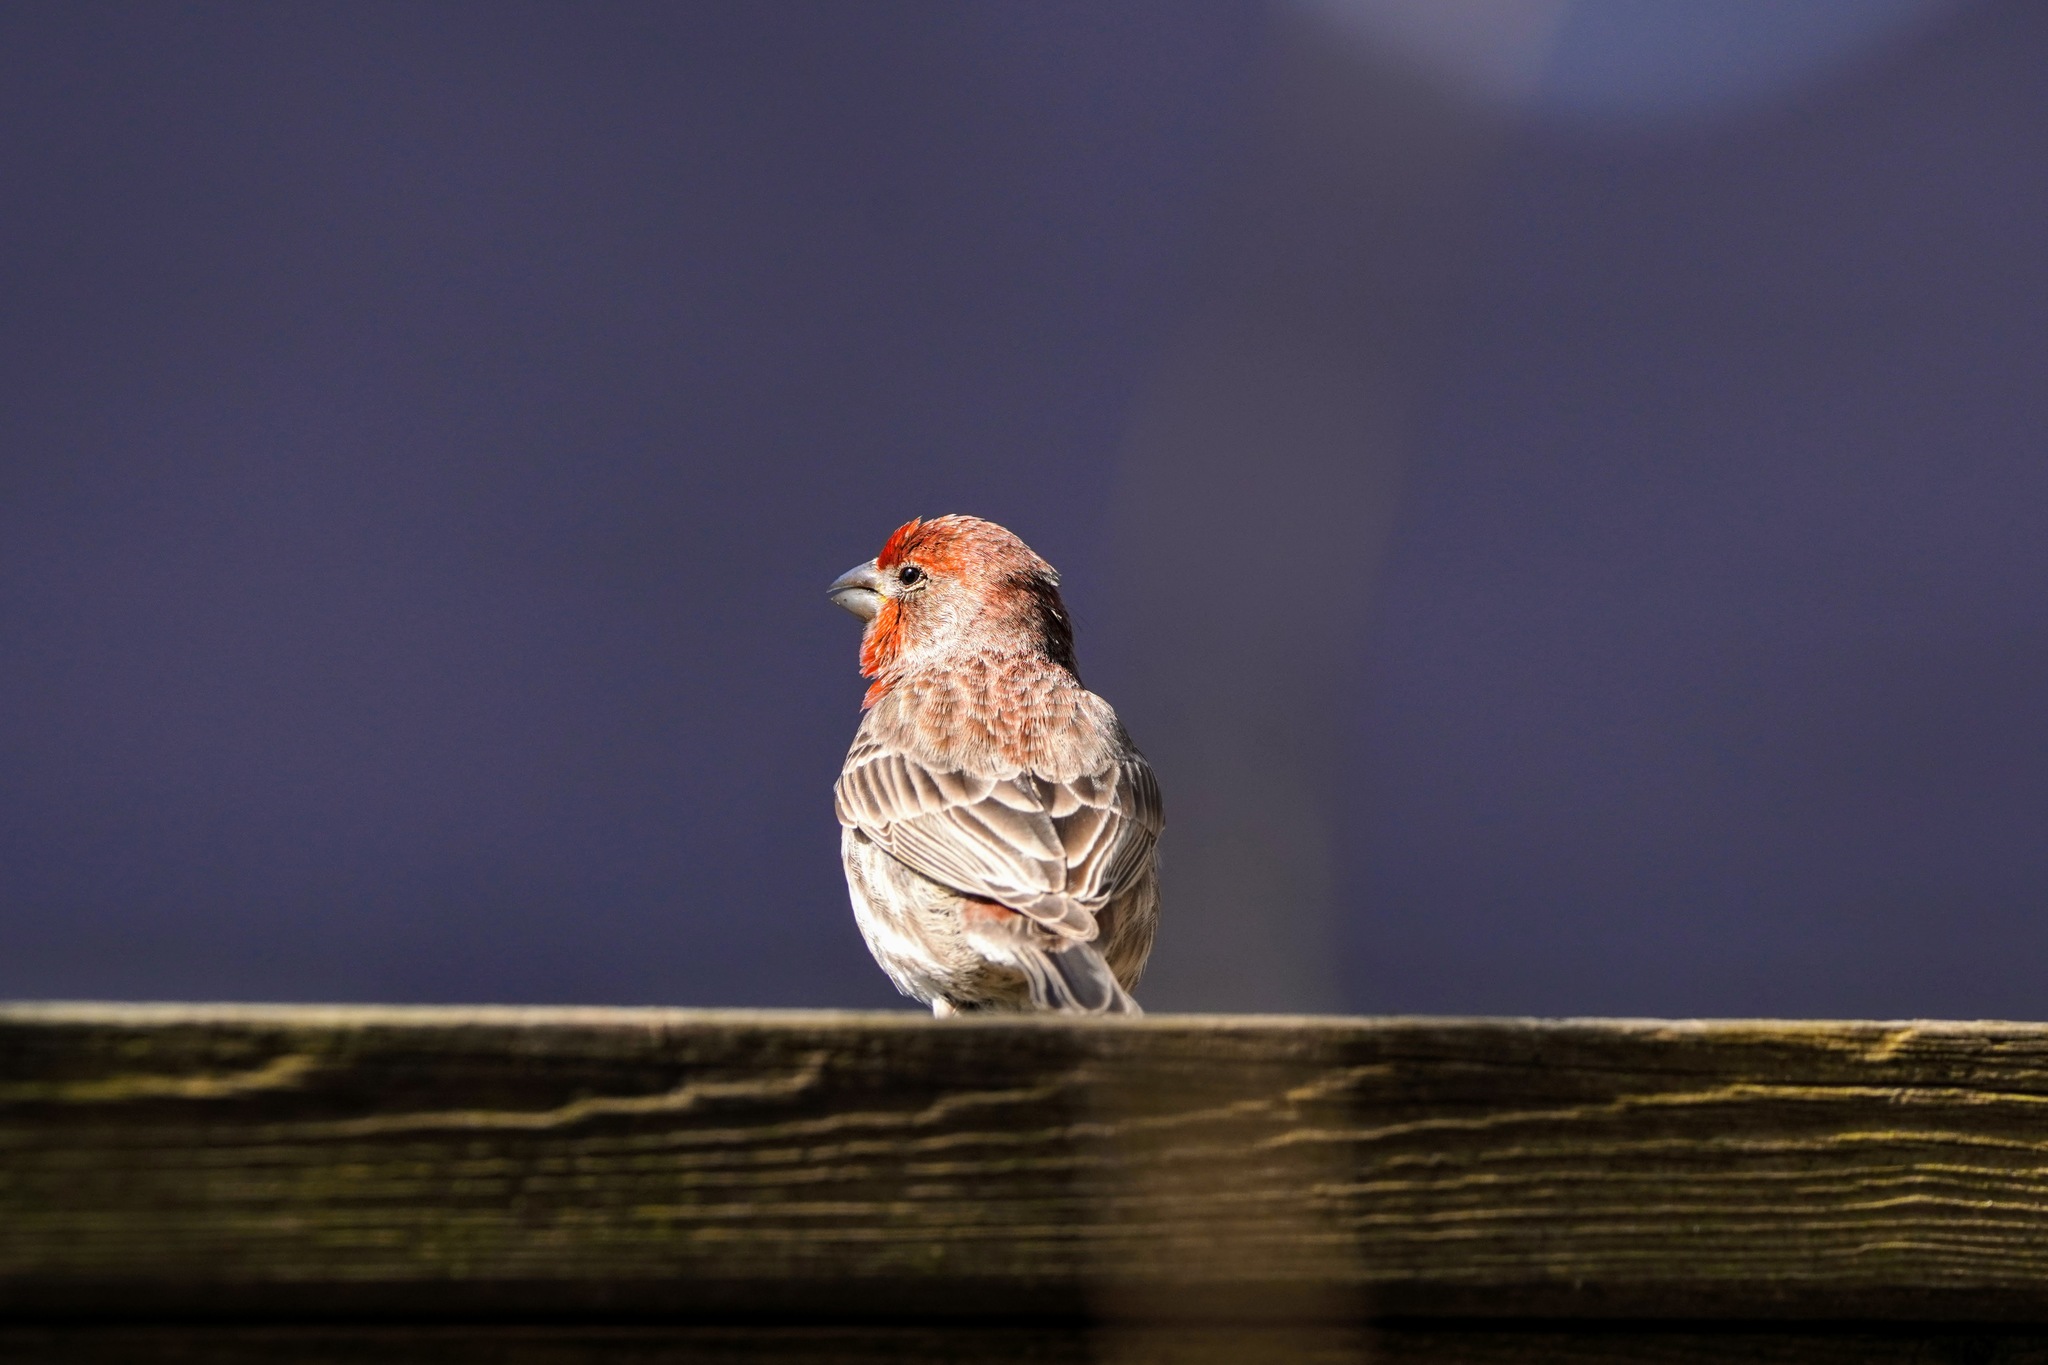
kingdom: Animalia
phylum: Chordata
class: Aves
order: Passeriformes
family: Fringillidae
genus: Haemorhous
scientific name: Haemorhous mexicanus
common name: House finch
